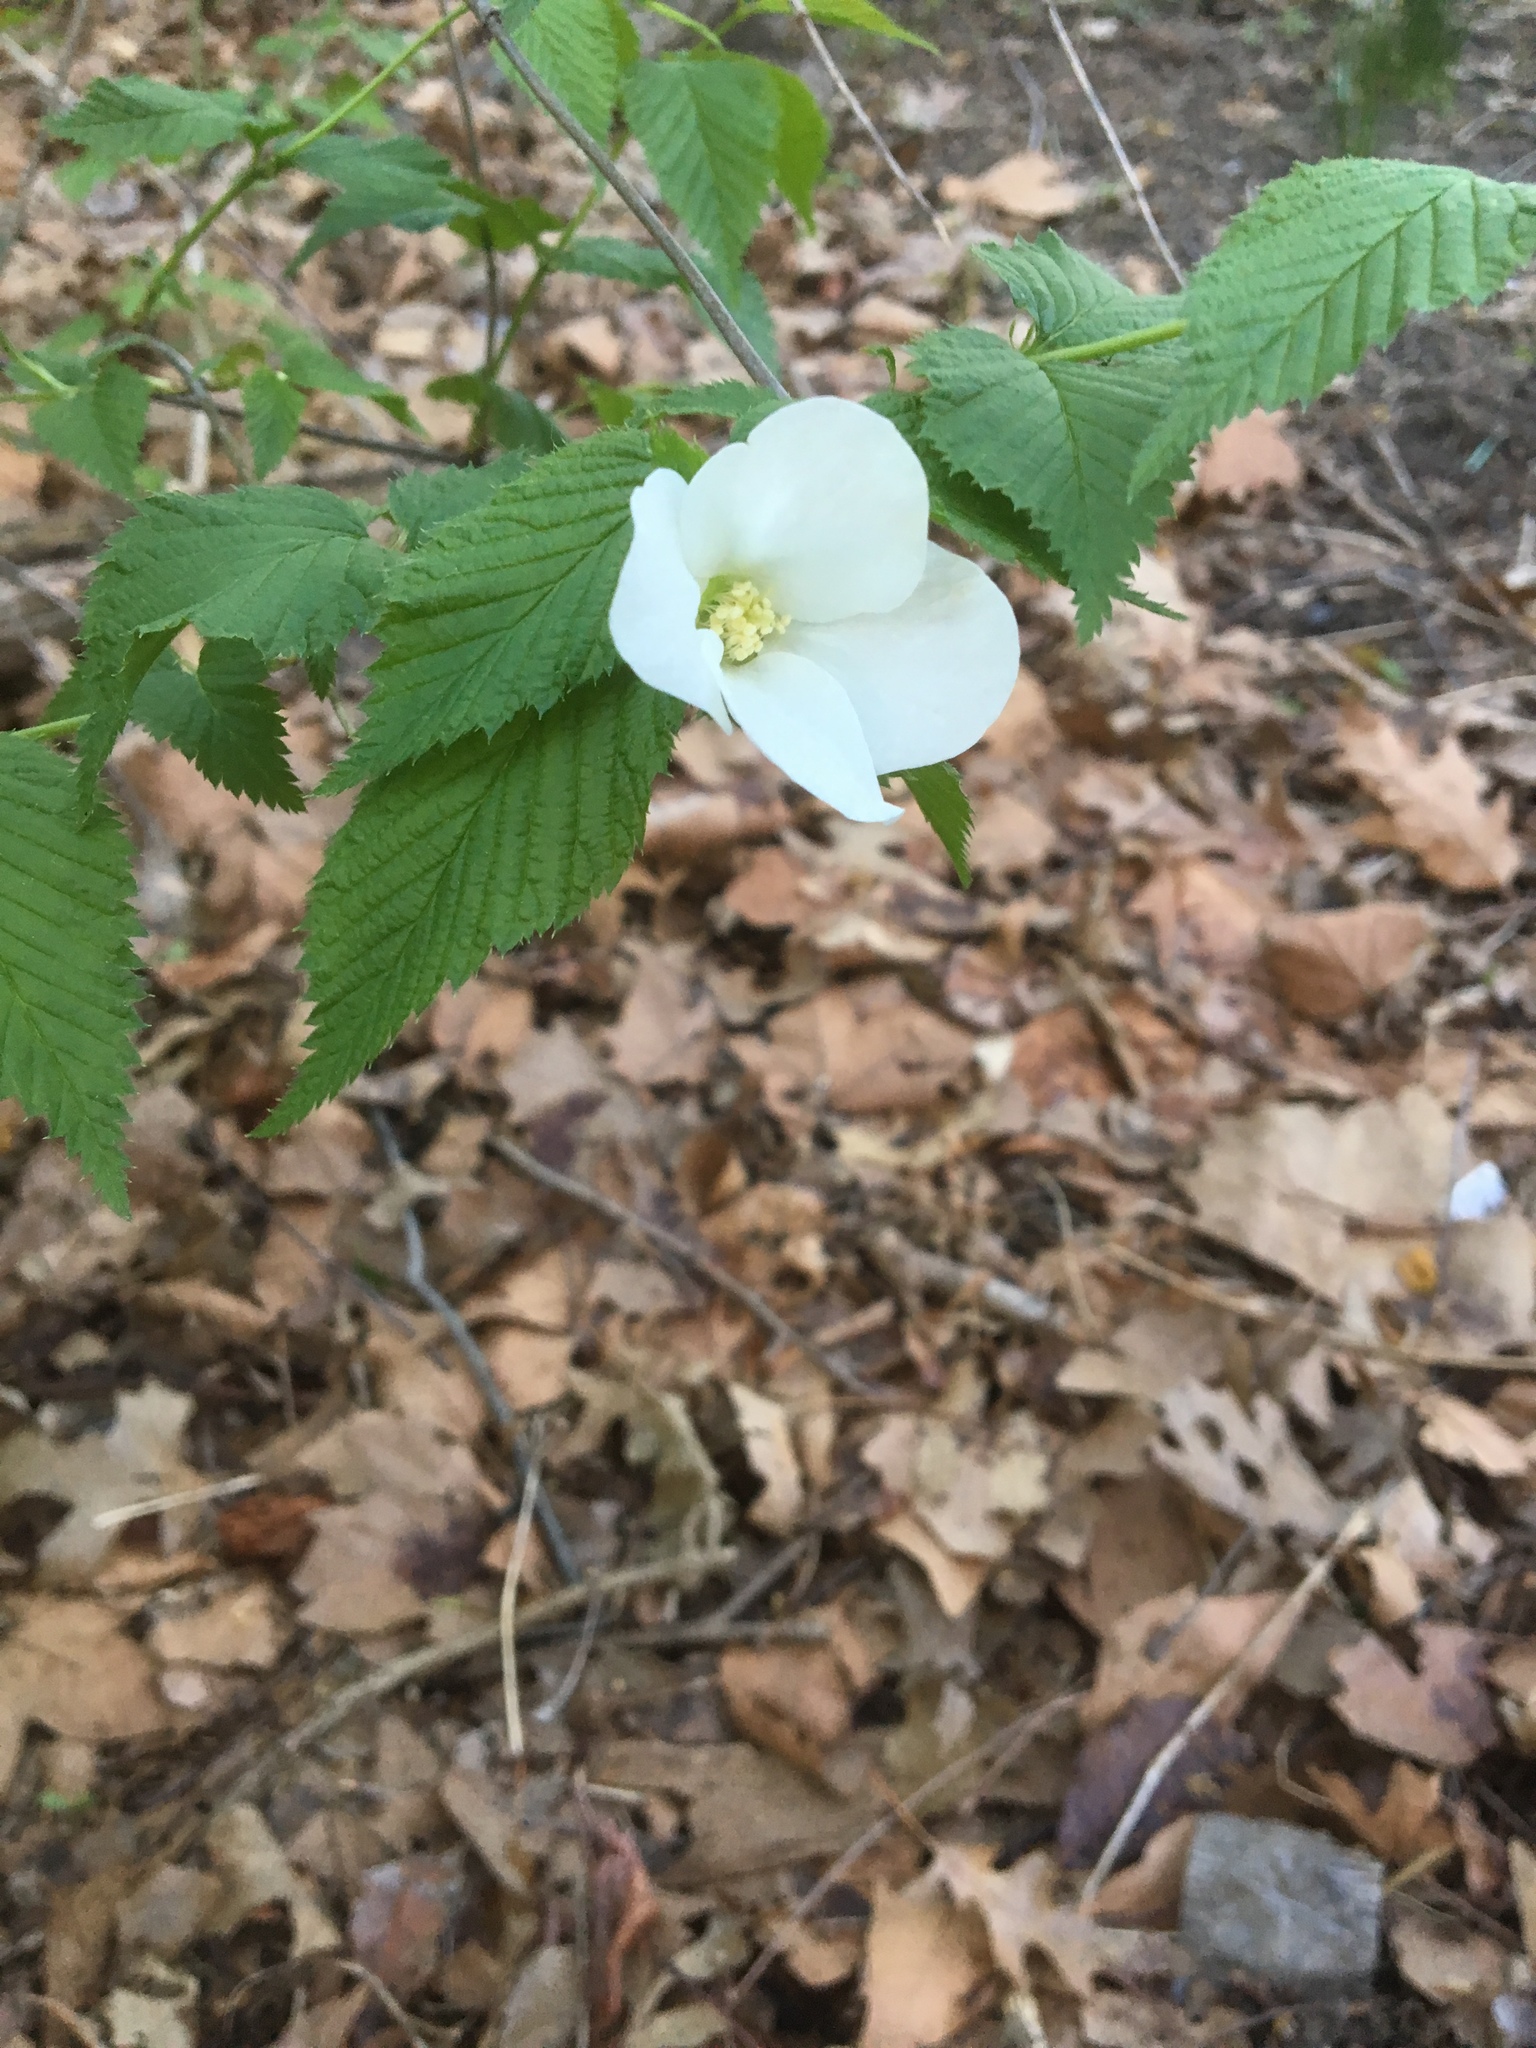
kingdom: Plantae
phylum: Tracheophyta
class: Magnoliopsida
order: Rosales
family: Rosaceae
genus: Rhodotypos
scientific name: Rhodotypos scandens
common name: Jetbead
